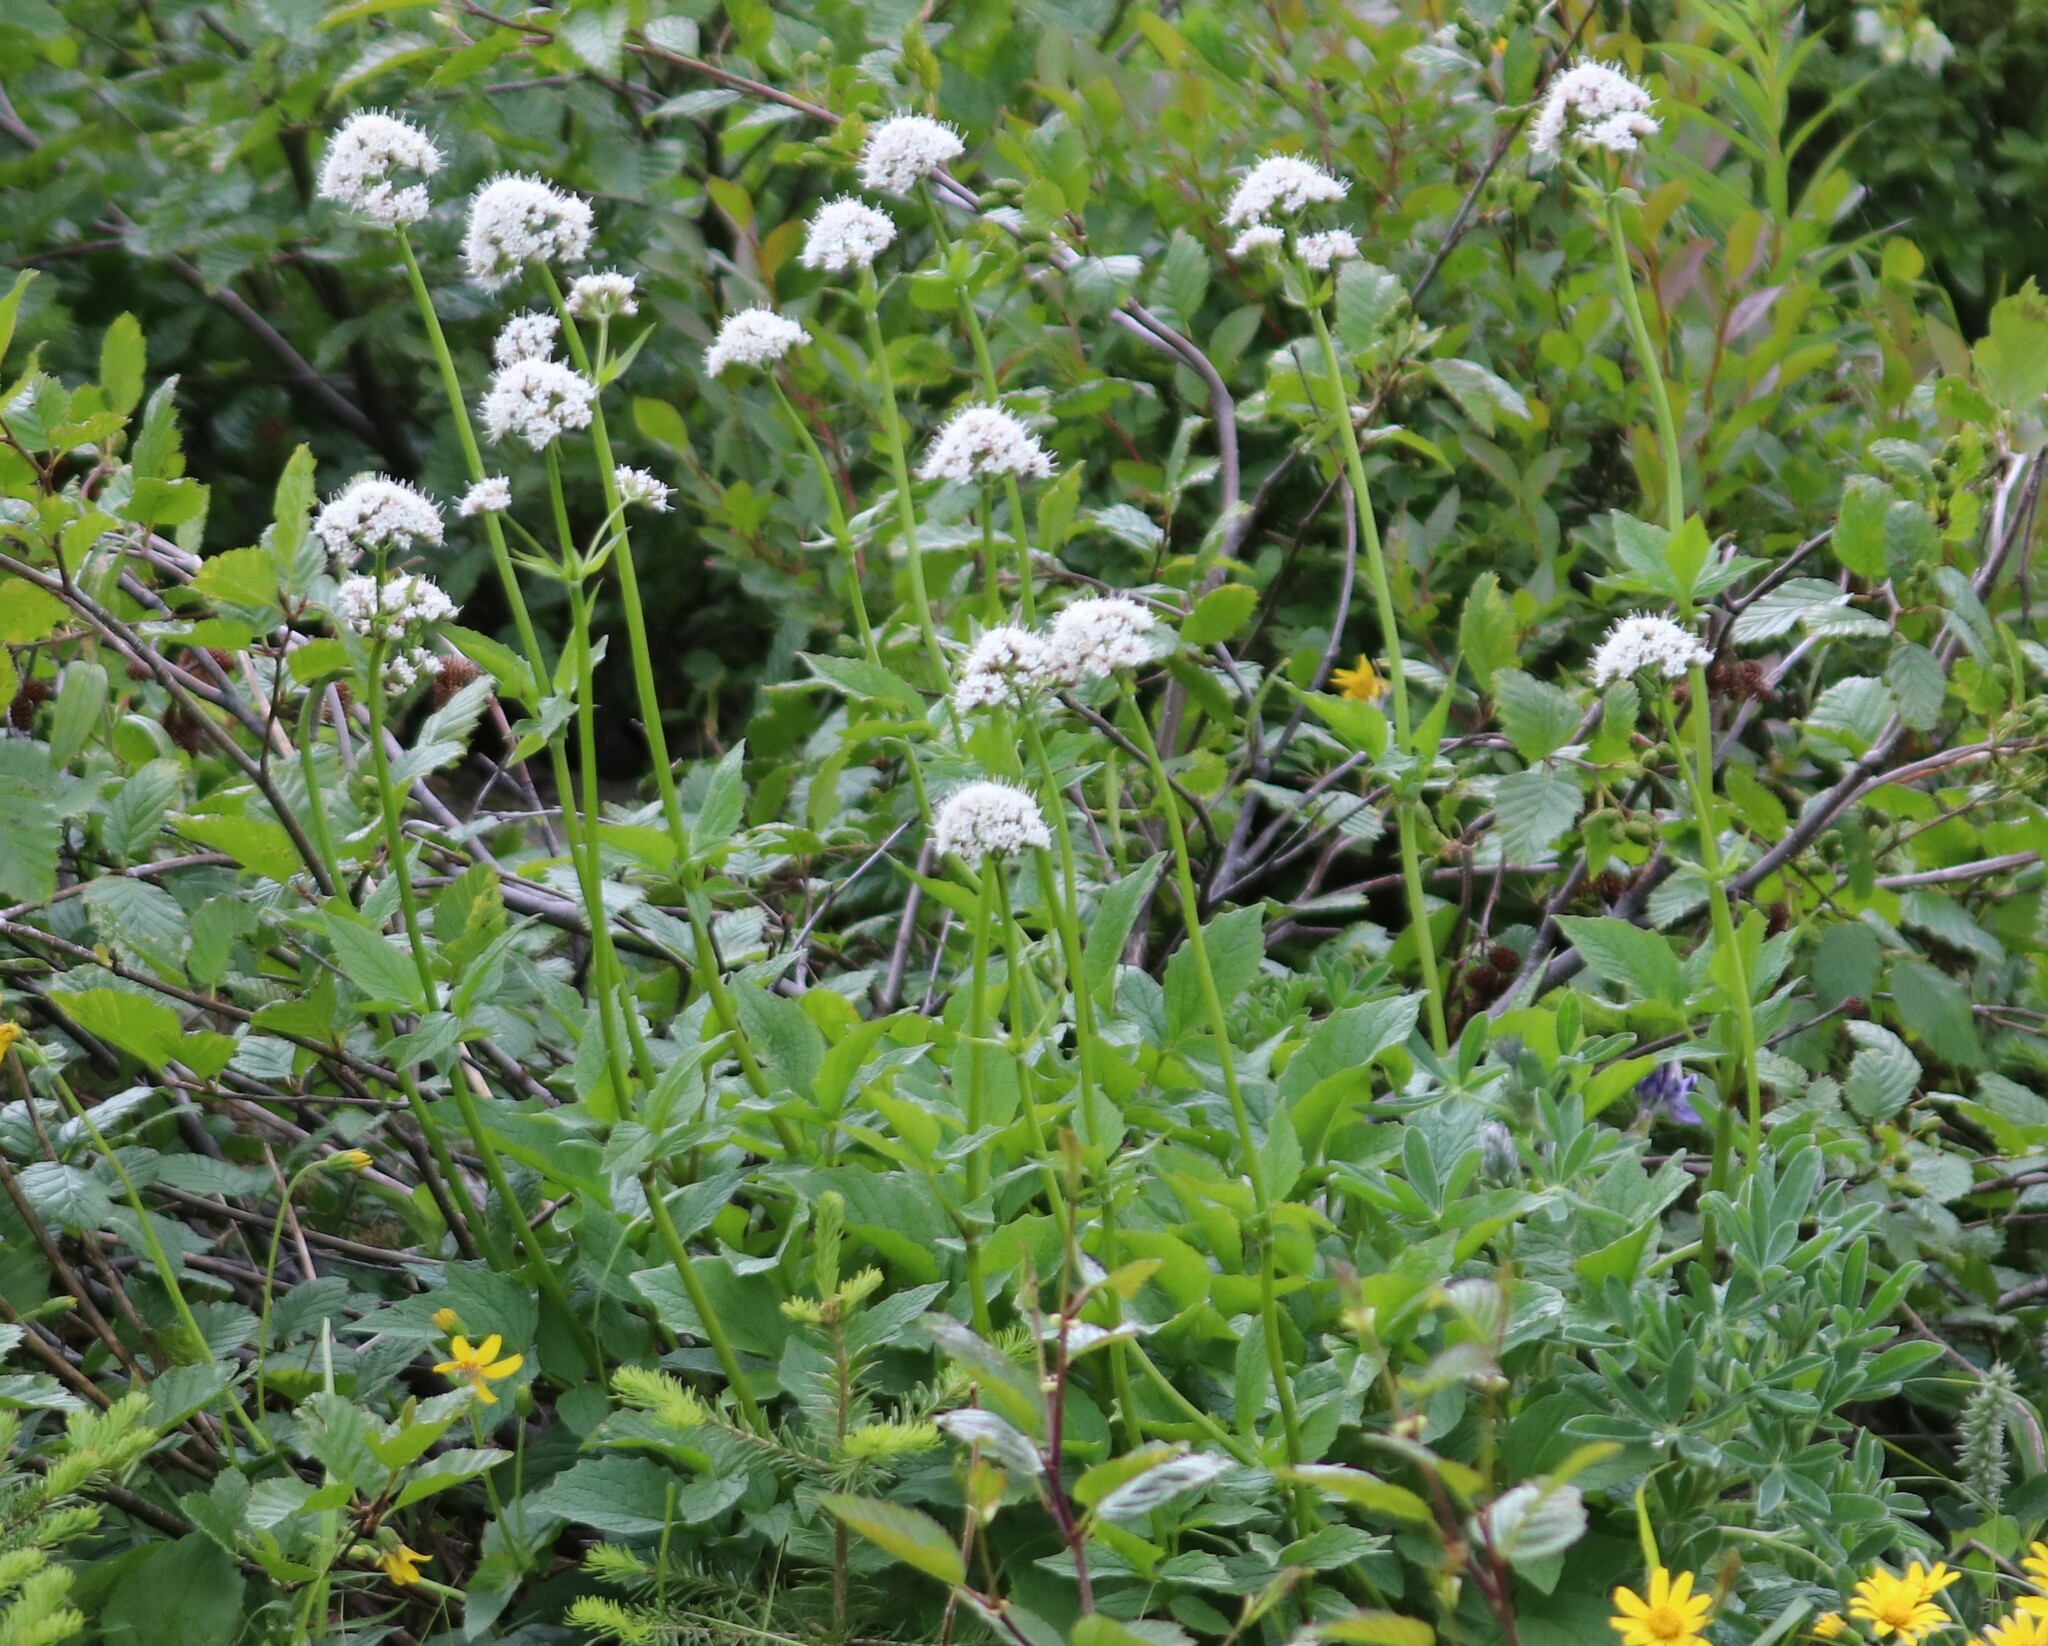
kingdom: Plantae
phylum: Tracheophyta
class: Magnoliopsida
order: Dipsacales
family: Caprifoliaceae
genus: Valeriana
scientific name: Valeriana sitchensis
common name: Pacific valerian
